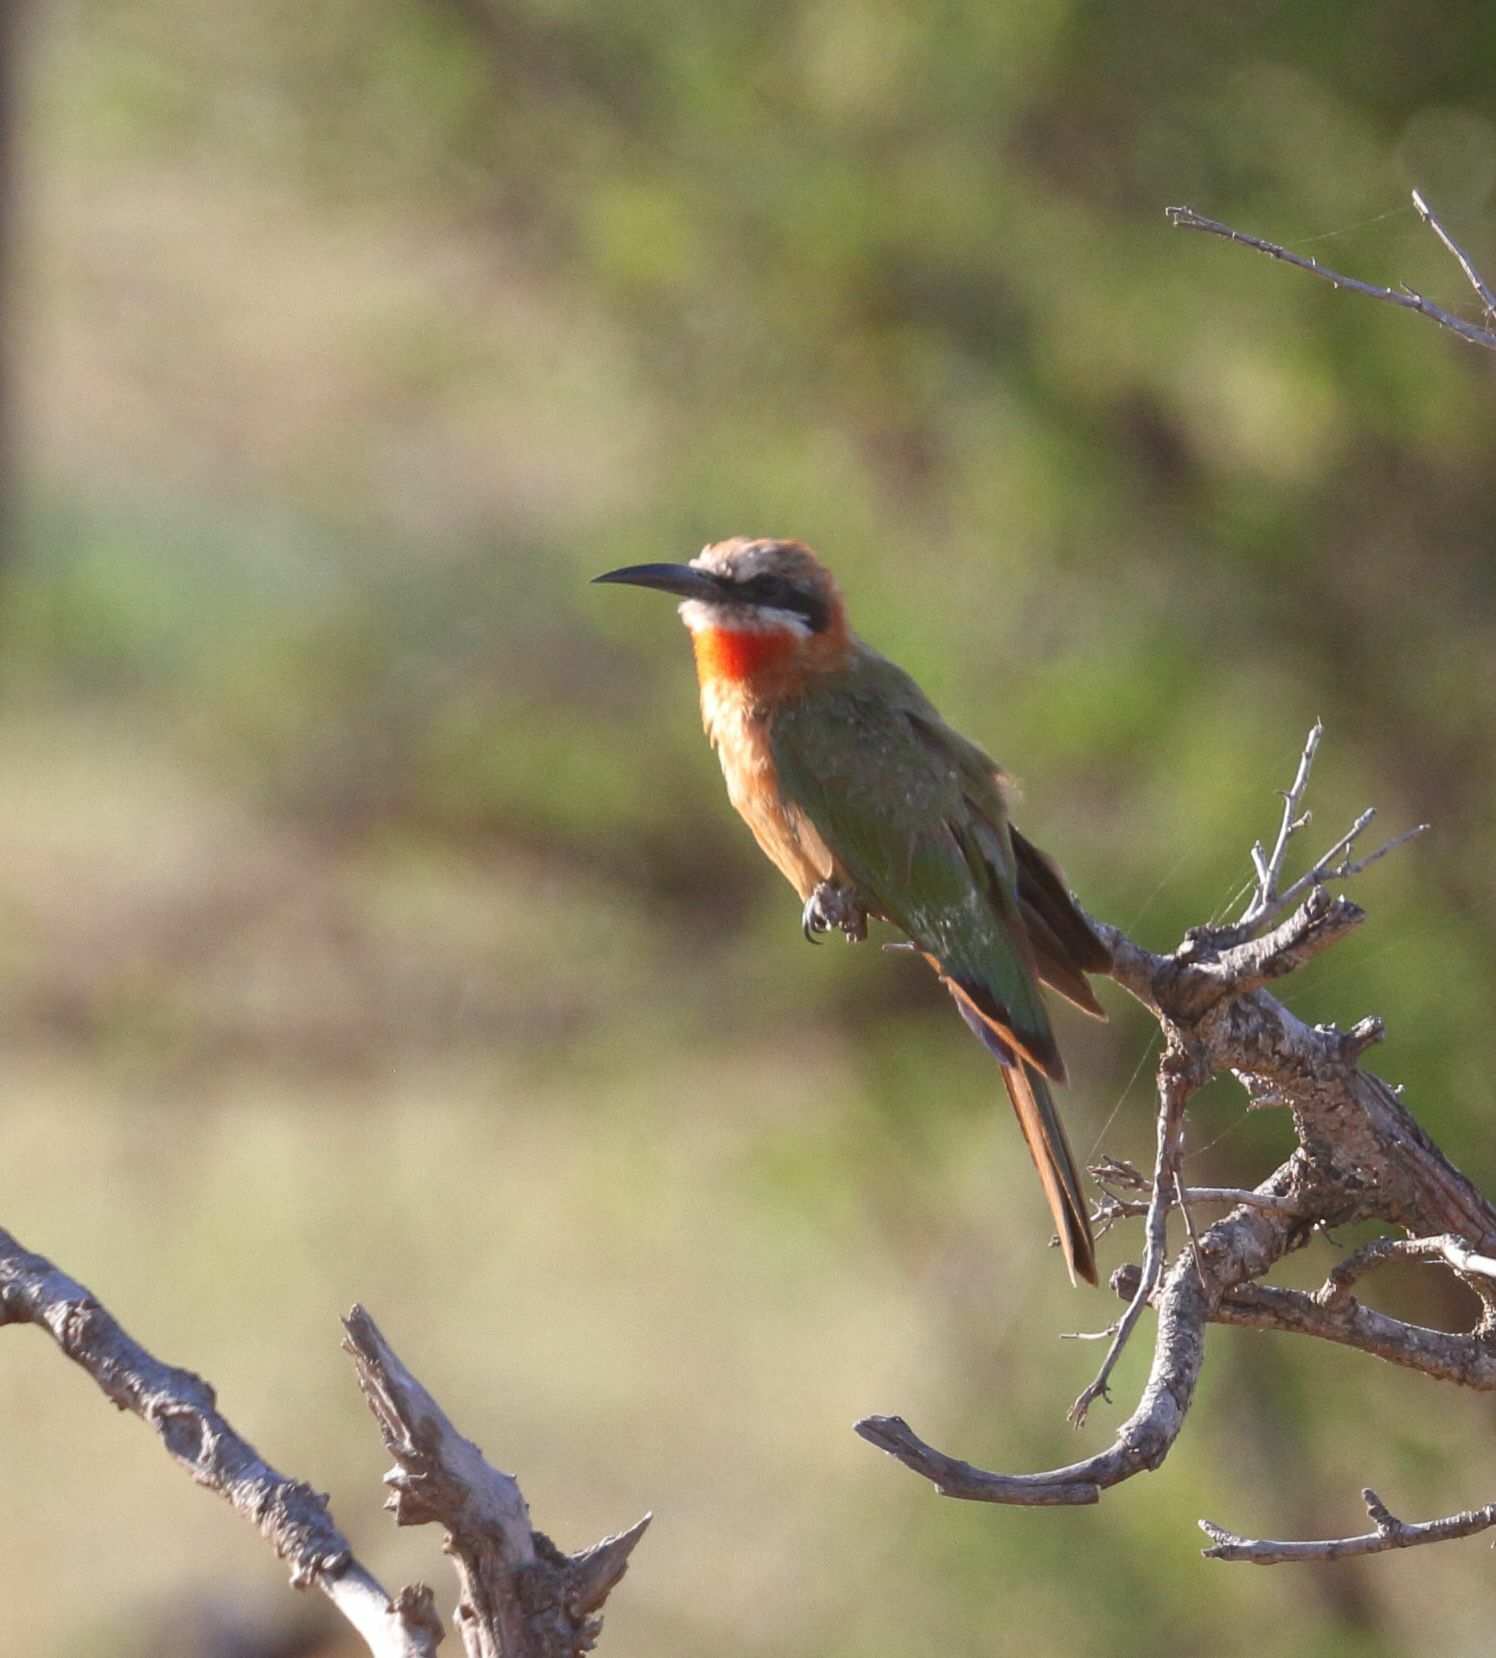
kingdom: Animalia
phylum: Chordata
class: Aves
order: Coraciiformes
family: Meropidae
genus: Merops
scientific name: Merops bullockoides
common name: White-fronted bee-eater
